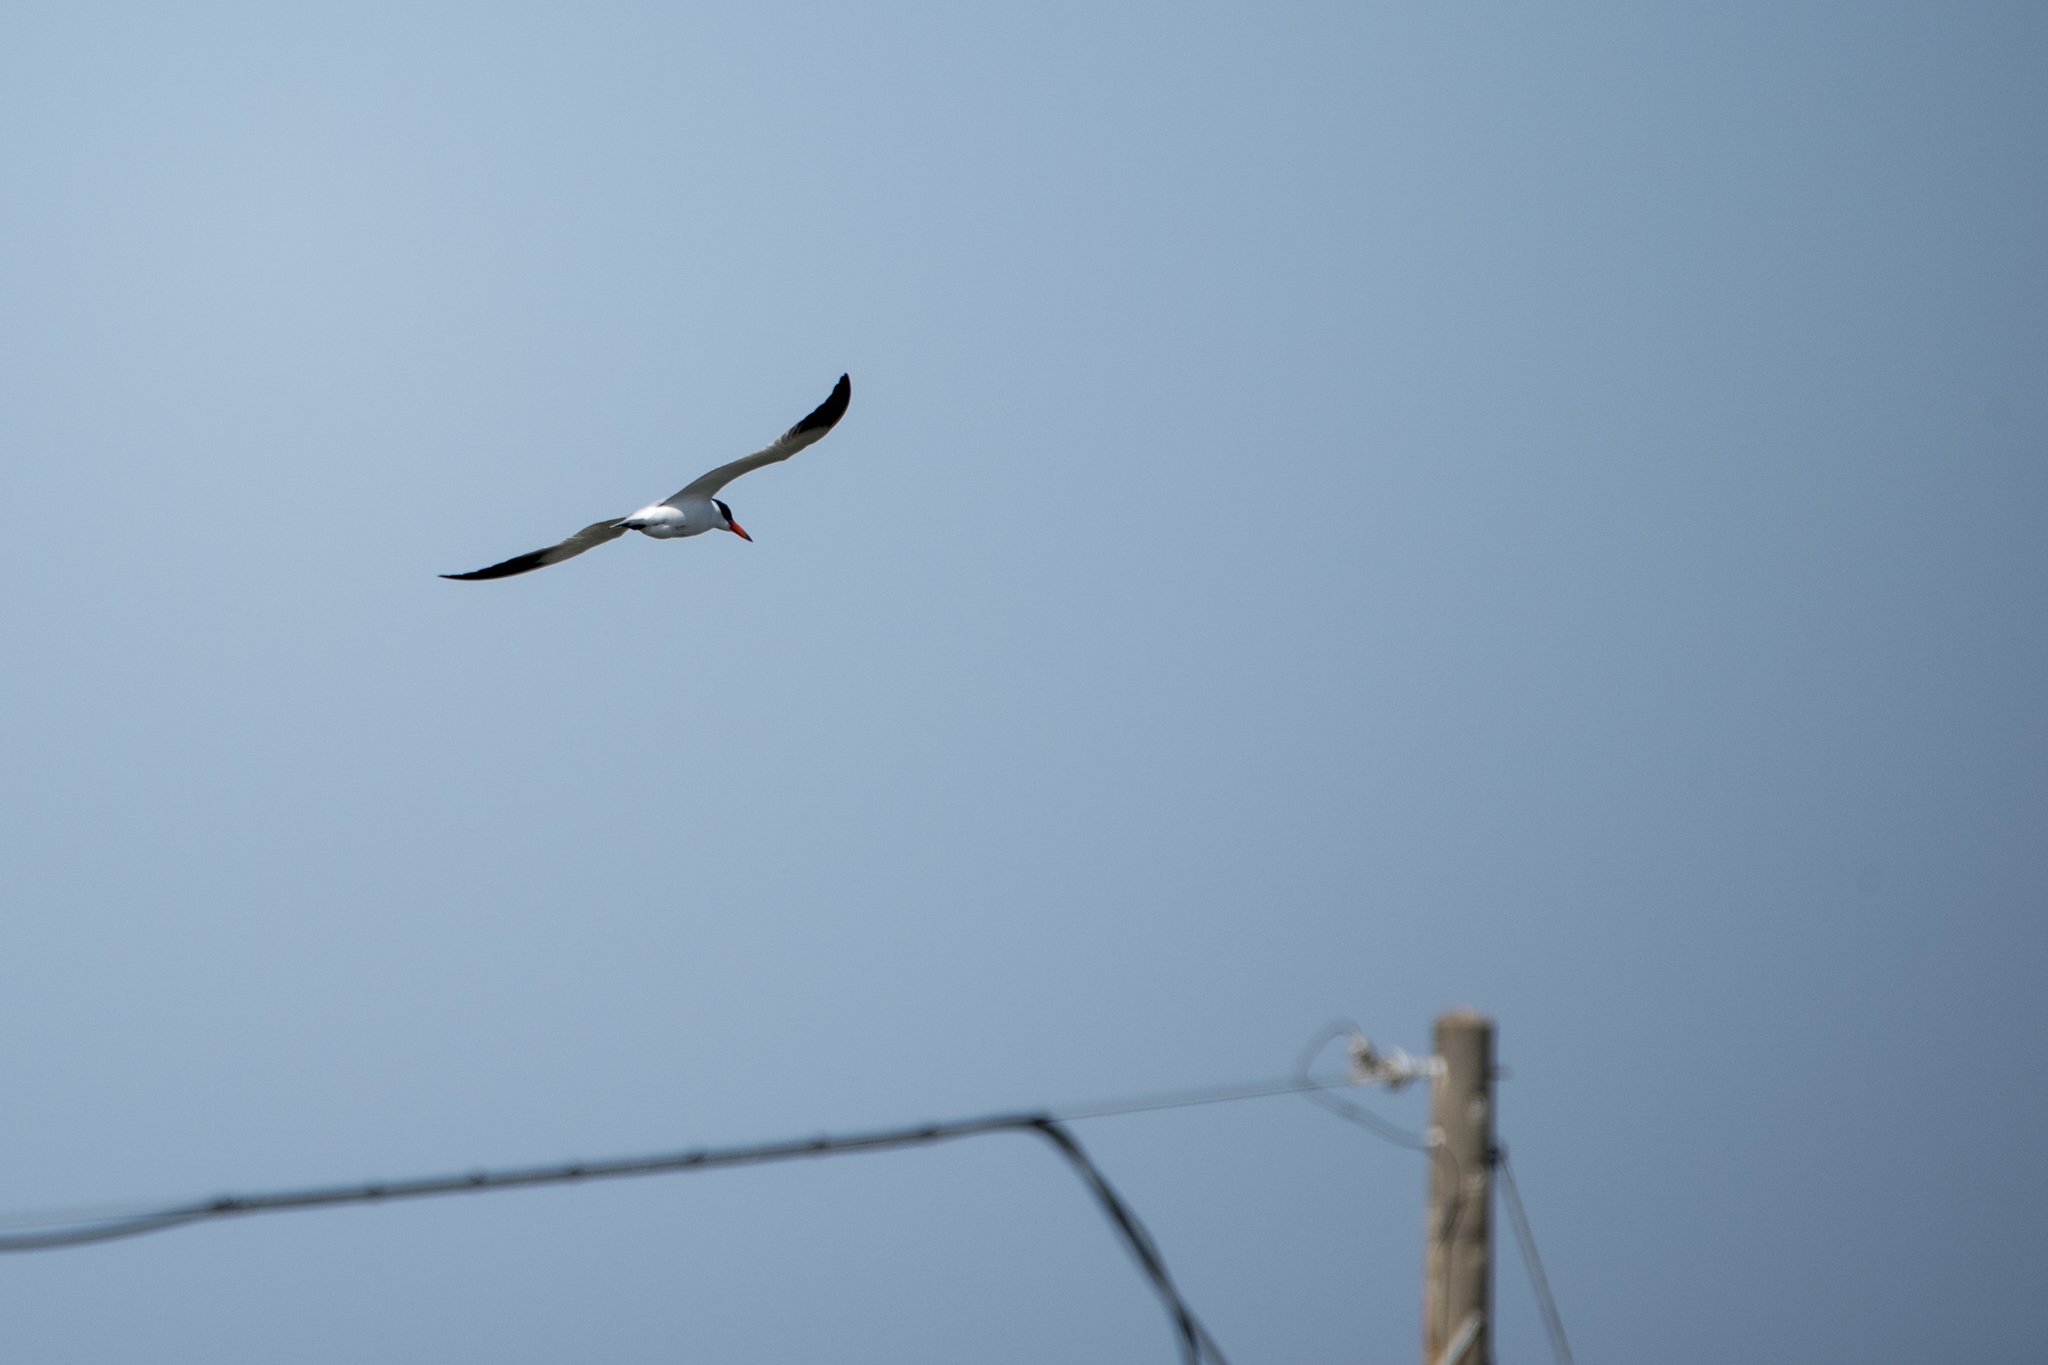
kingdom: Animalia
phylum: Chordata
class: Aves
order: Charadriiformes
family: Laridae
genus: Hydroprogne
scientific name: Hydroprogne caspia
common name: Caspian tern
